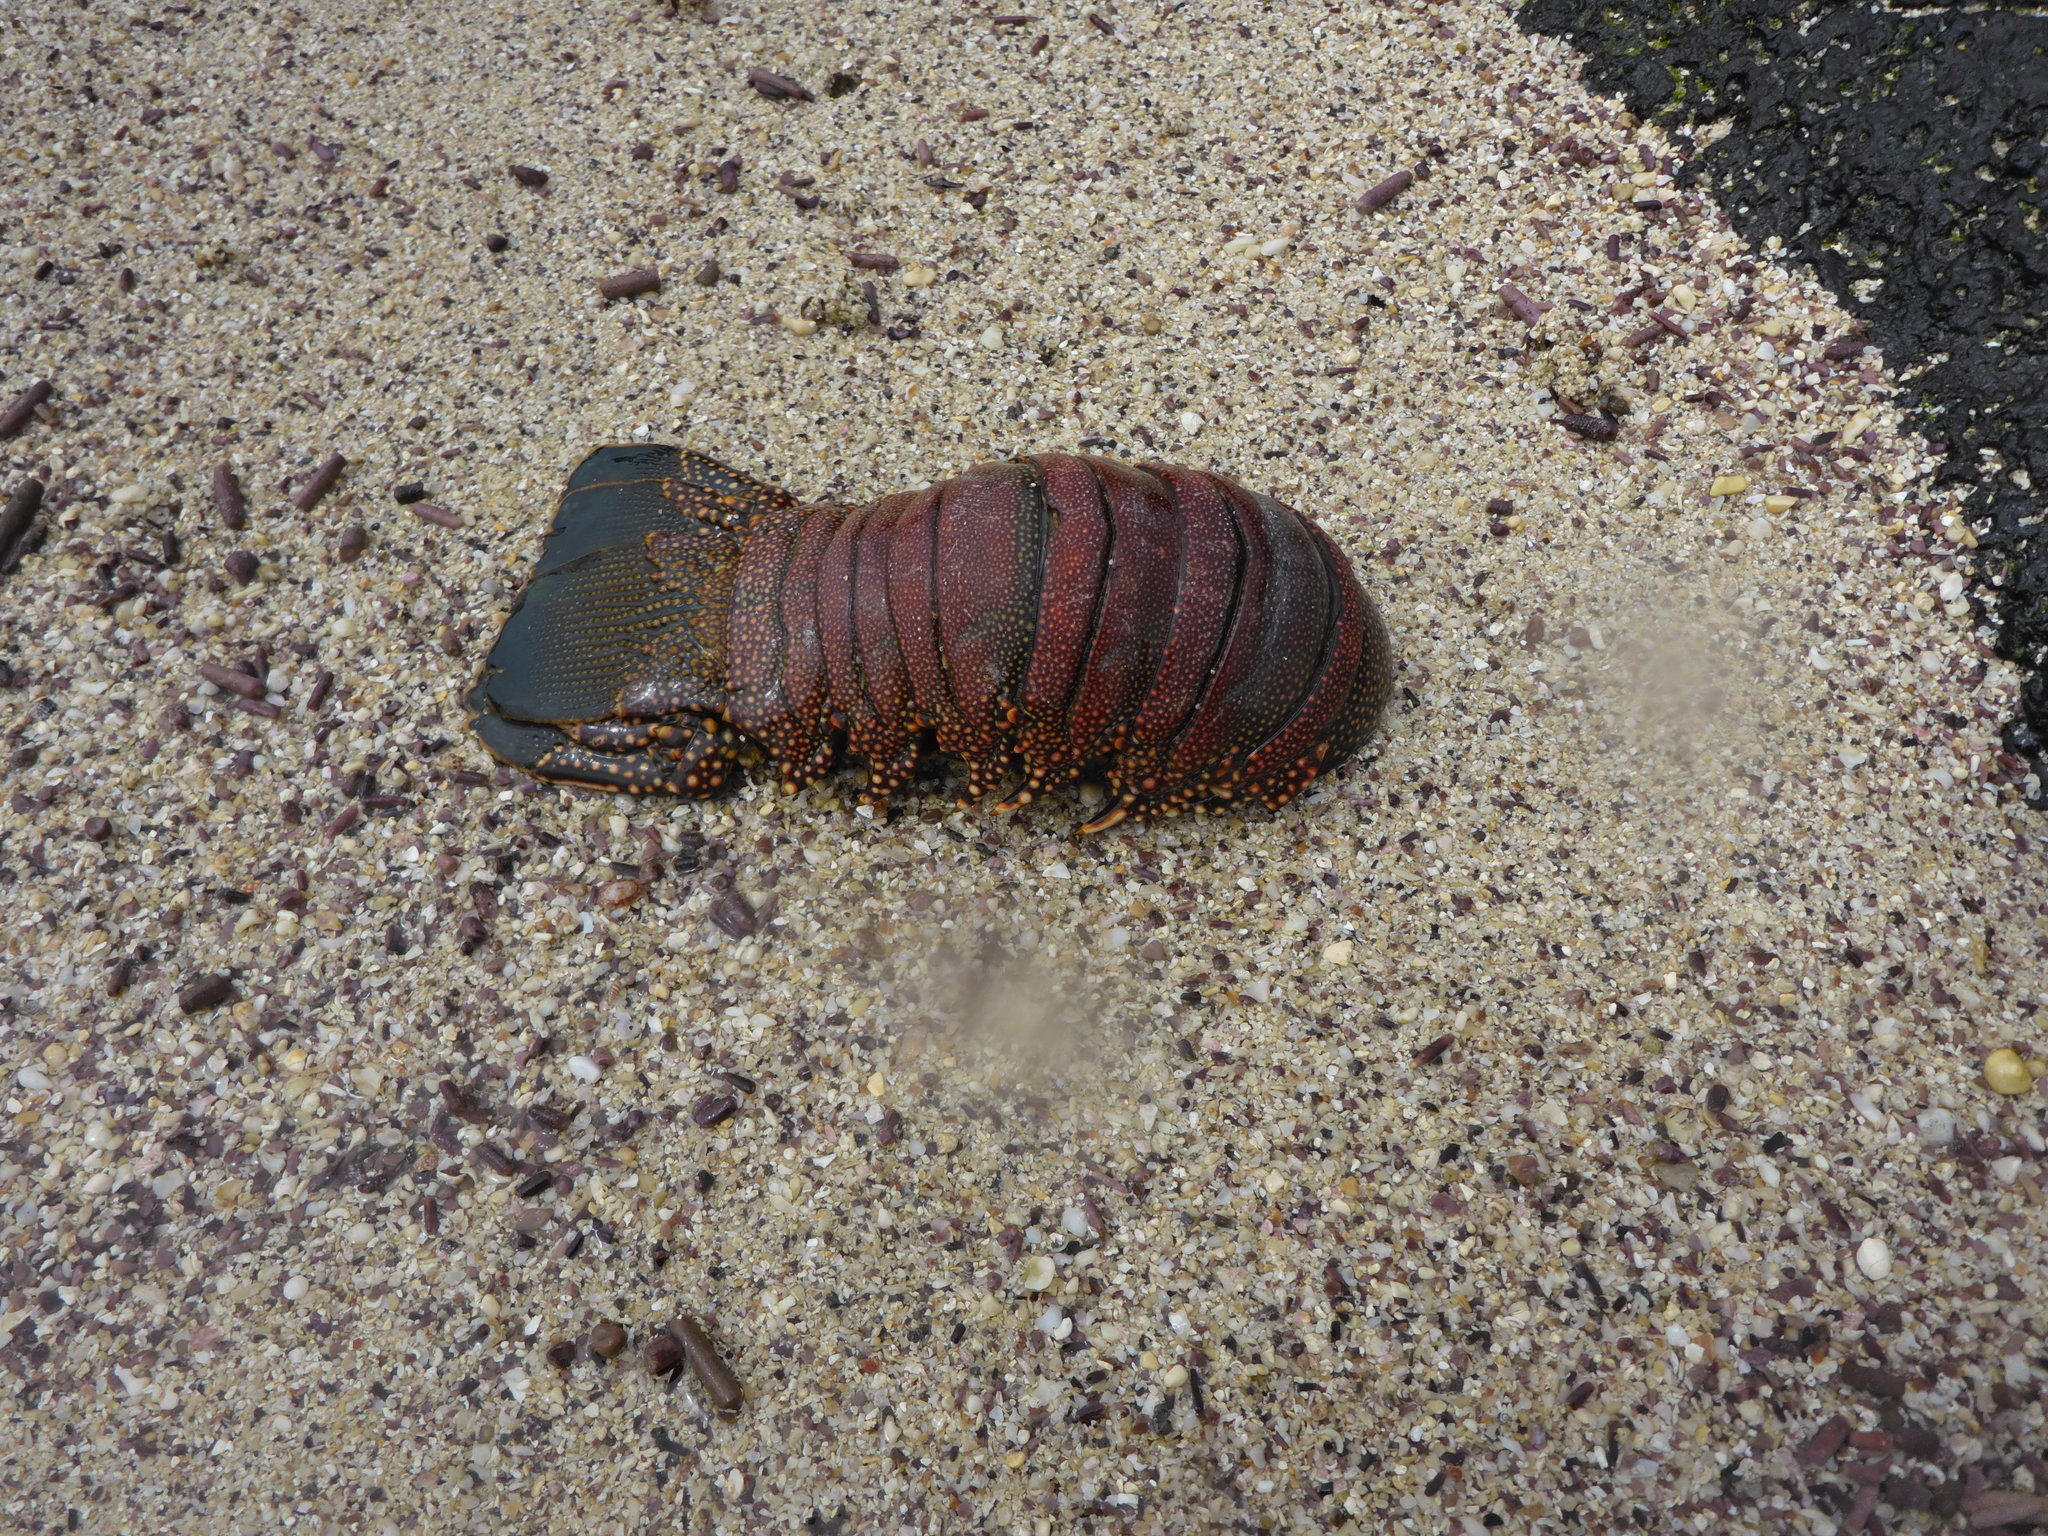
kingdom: Animalia
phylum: Arthropoda
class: Malacostraca
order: Decapoda
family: Palinuridae
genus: Panulirus
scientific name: Panulirus penicillatus
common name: Pronghorn spiny lobster
